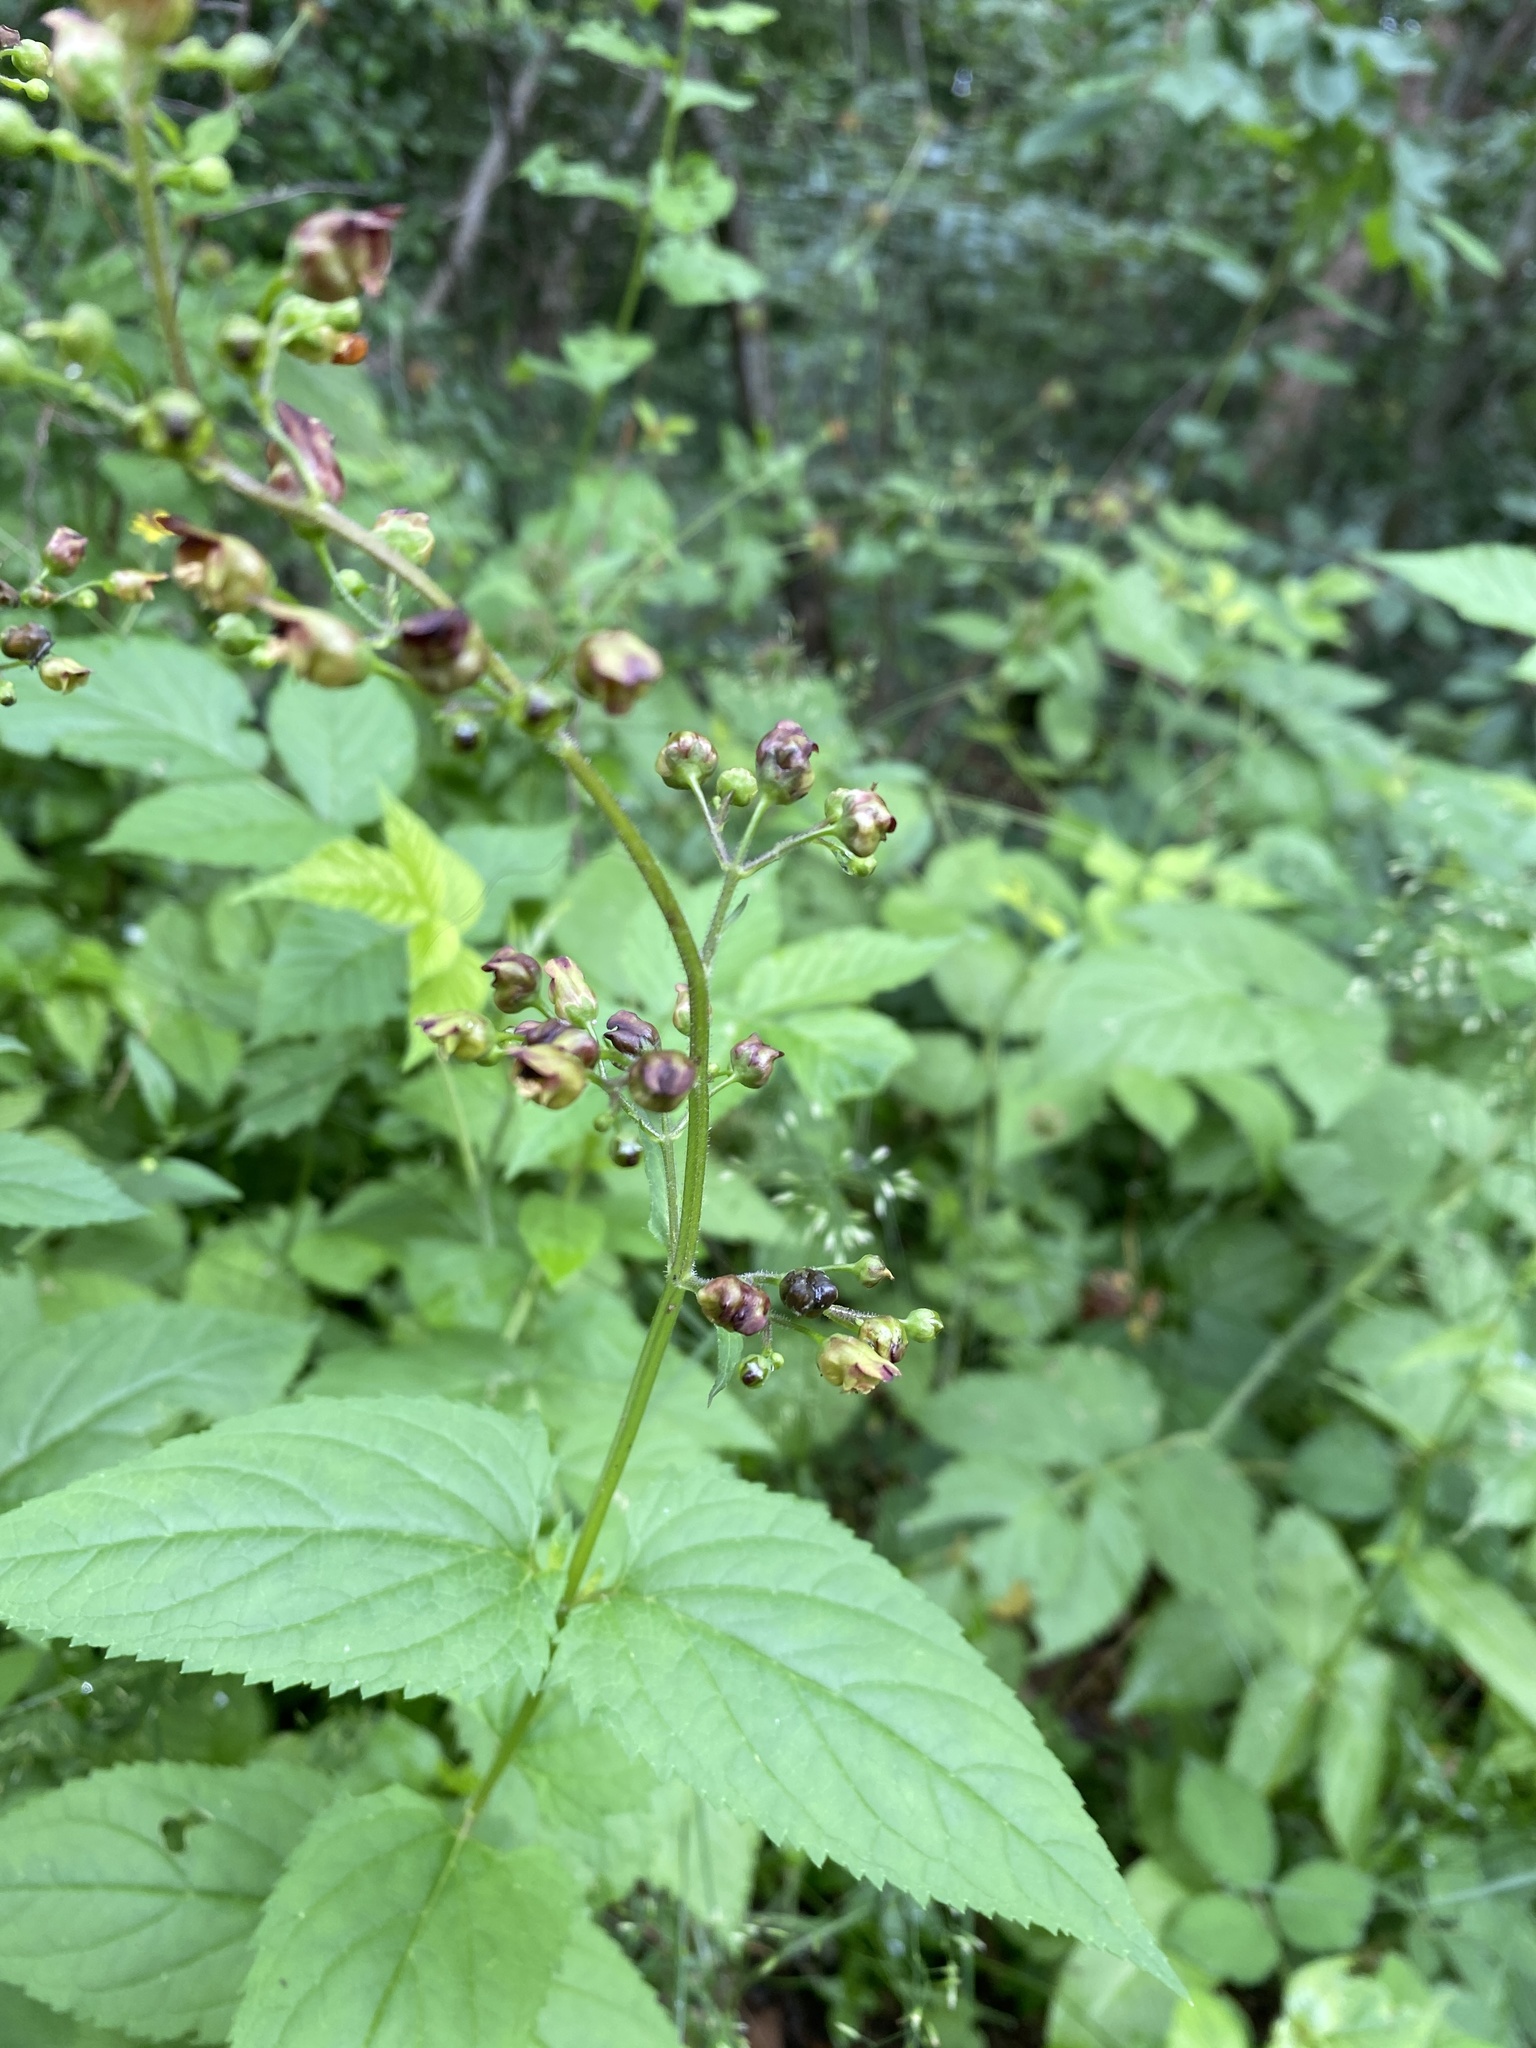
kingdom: Plantae
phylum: Tracheophyta
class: Magnoliopsida
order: Lamiales
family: Scrophulariaceae
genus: Scrophularia
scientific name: Scrophularia nodosa
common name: Common figwort
